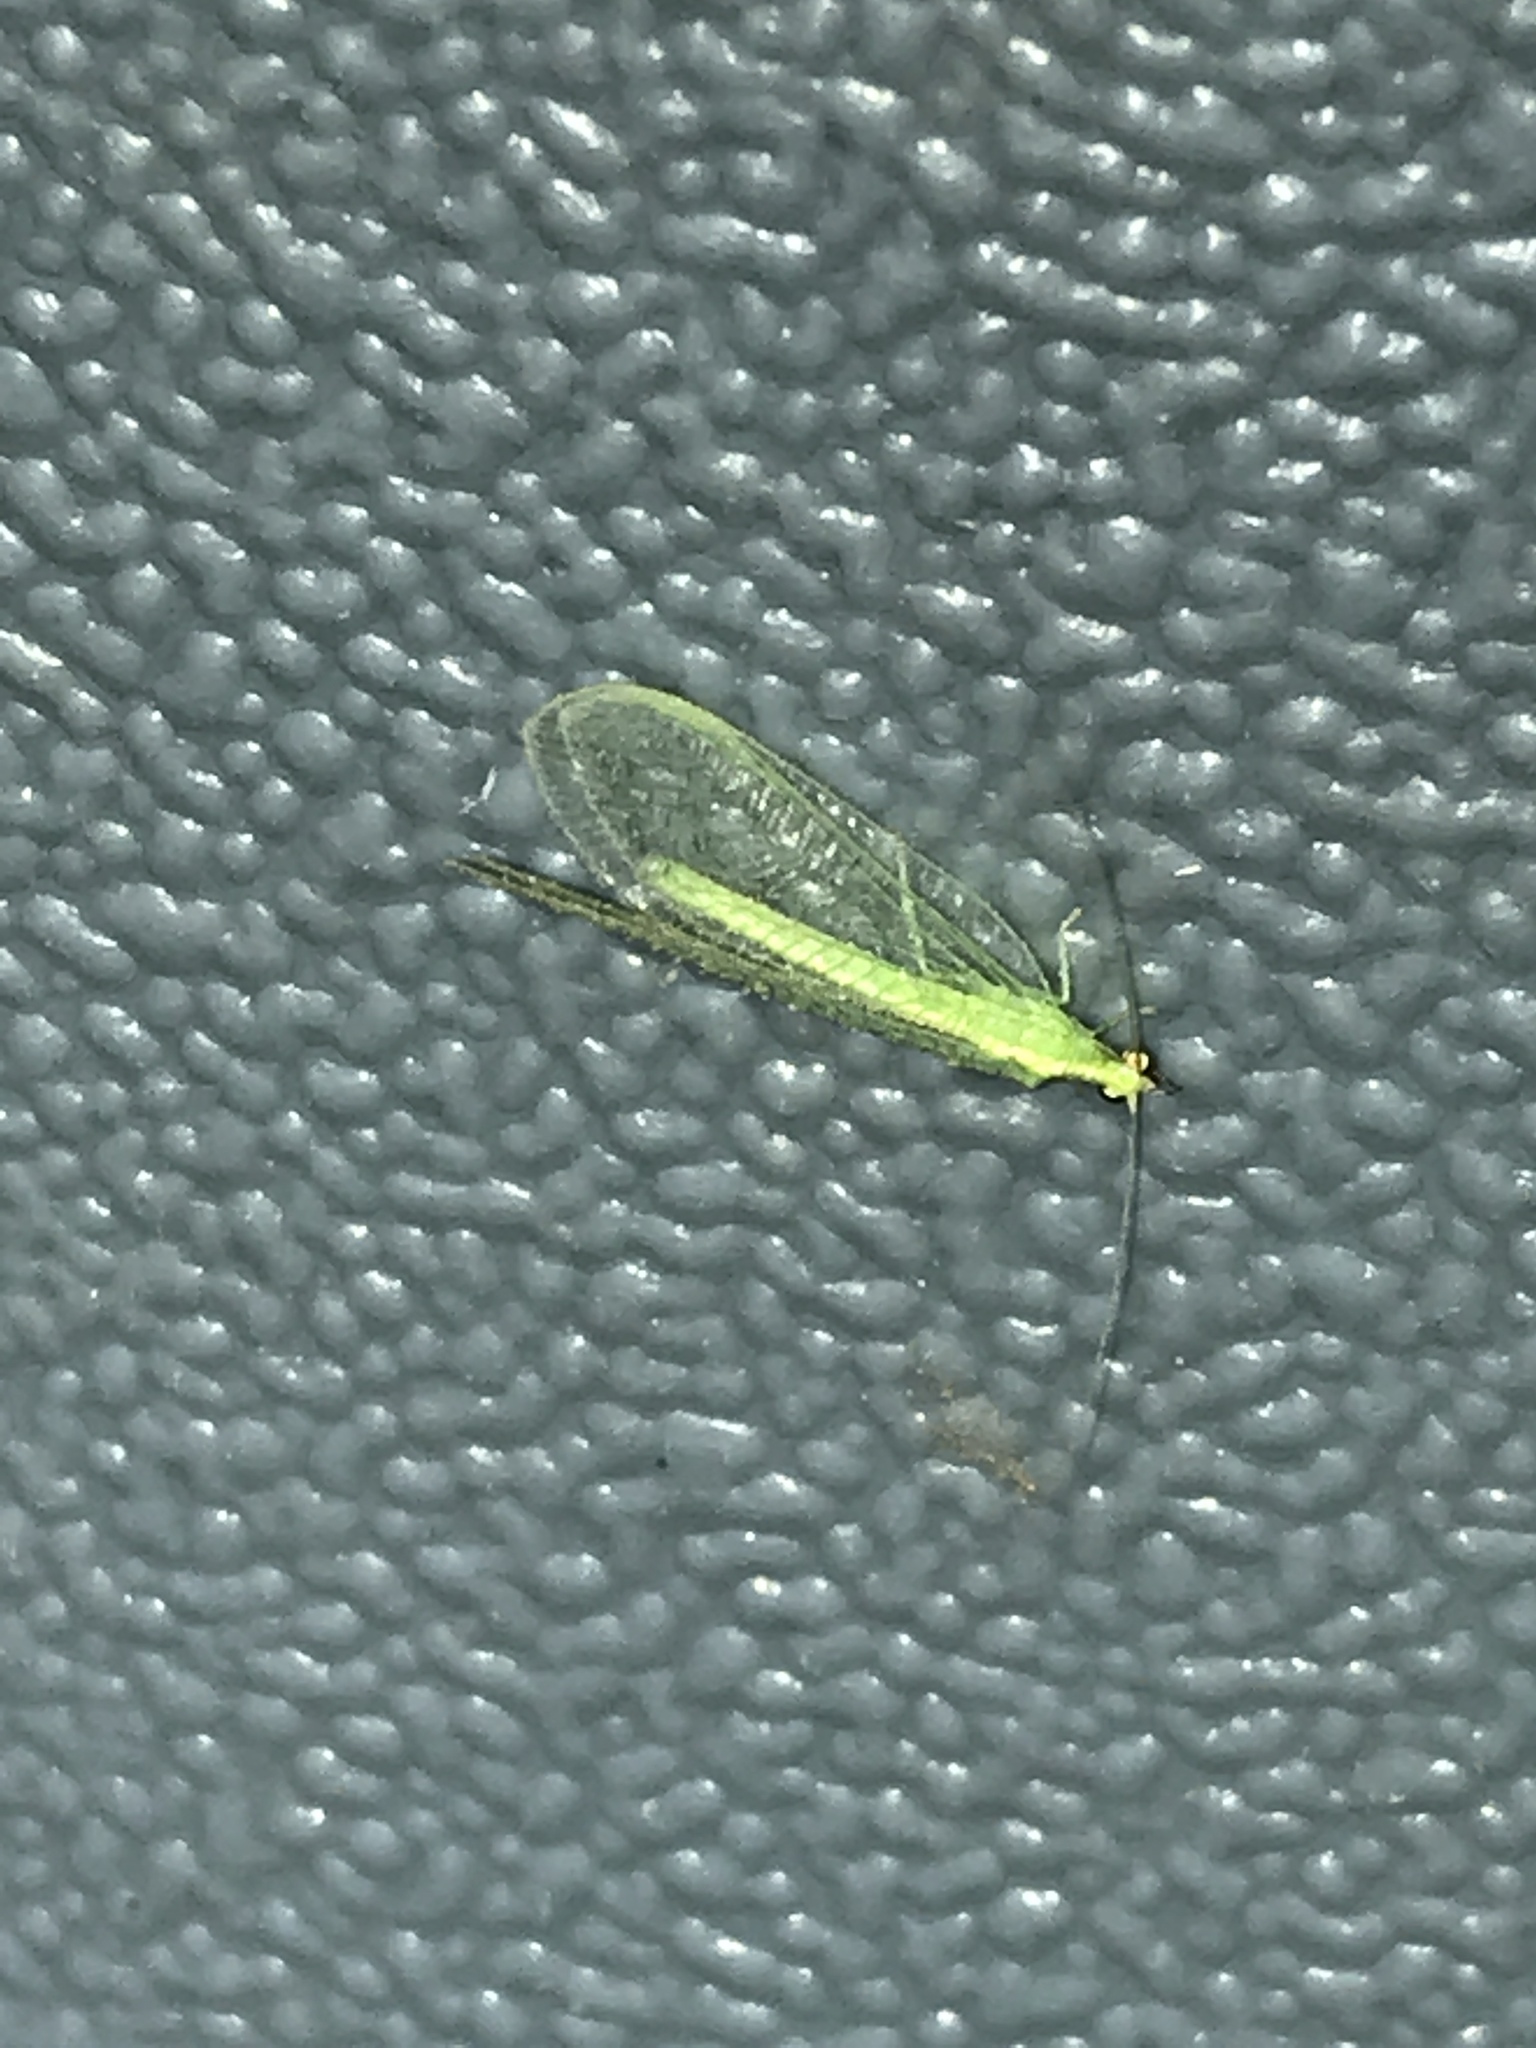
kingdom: Animalia
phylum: Arthropoda
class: Insecta
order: Neuroptera
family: Chrysopidae
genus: Chrysoperla
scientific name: Chrysoperla
